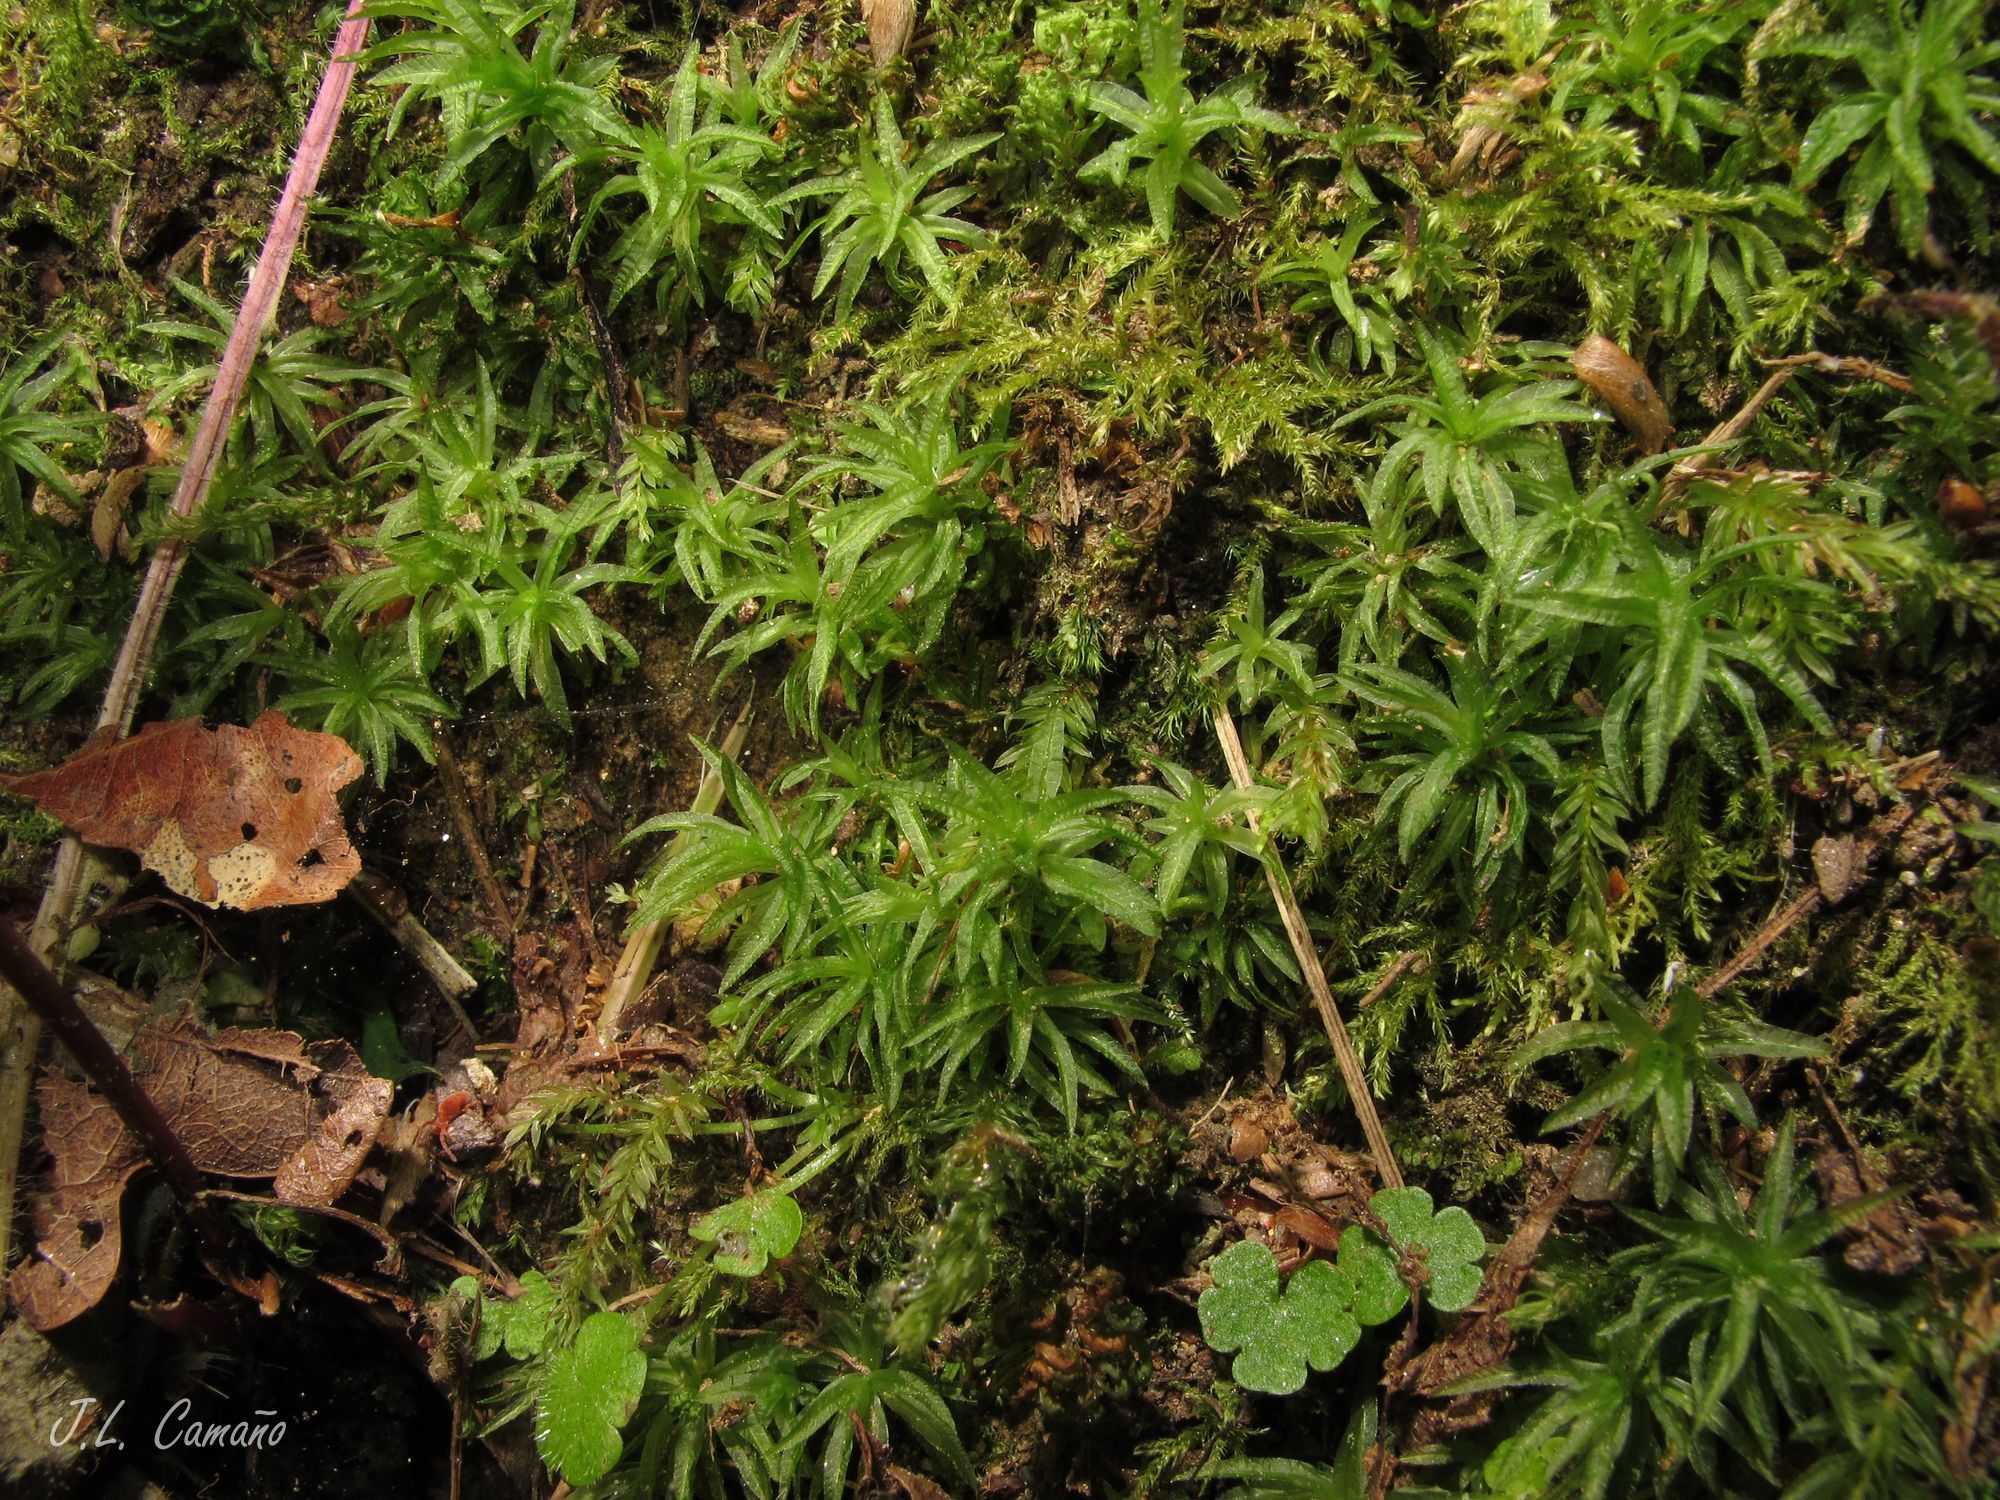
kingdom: Plantae
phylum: Bryophyta
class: Polytrichopsida
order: Polytrichales
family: Polytrichaceae
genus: Atrichum
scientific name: Atrichum undulatum
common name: Common smoothcap
